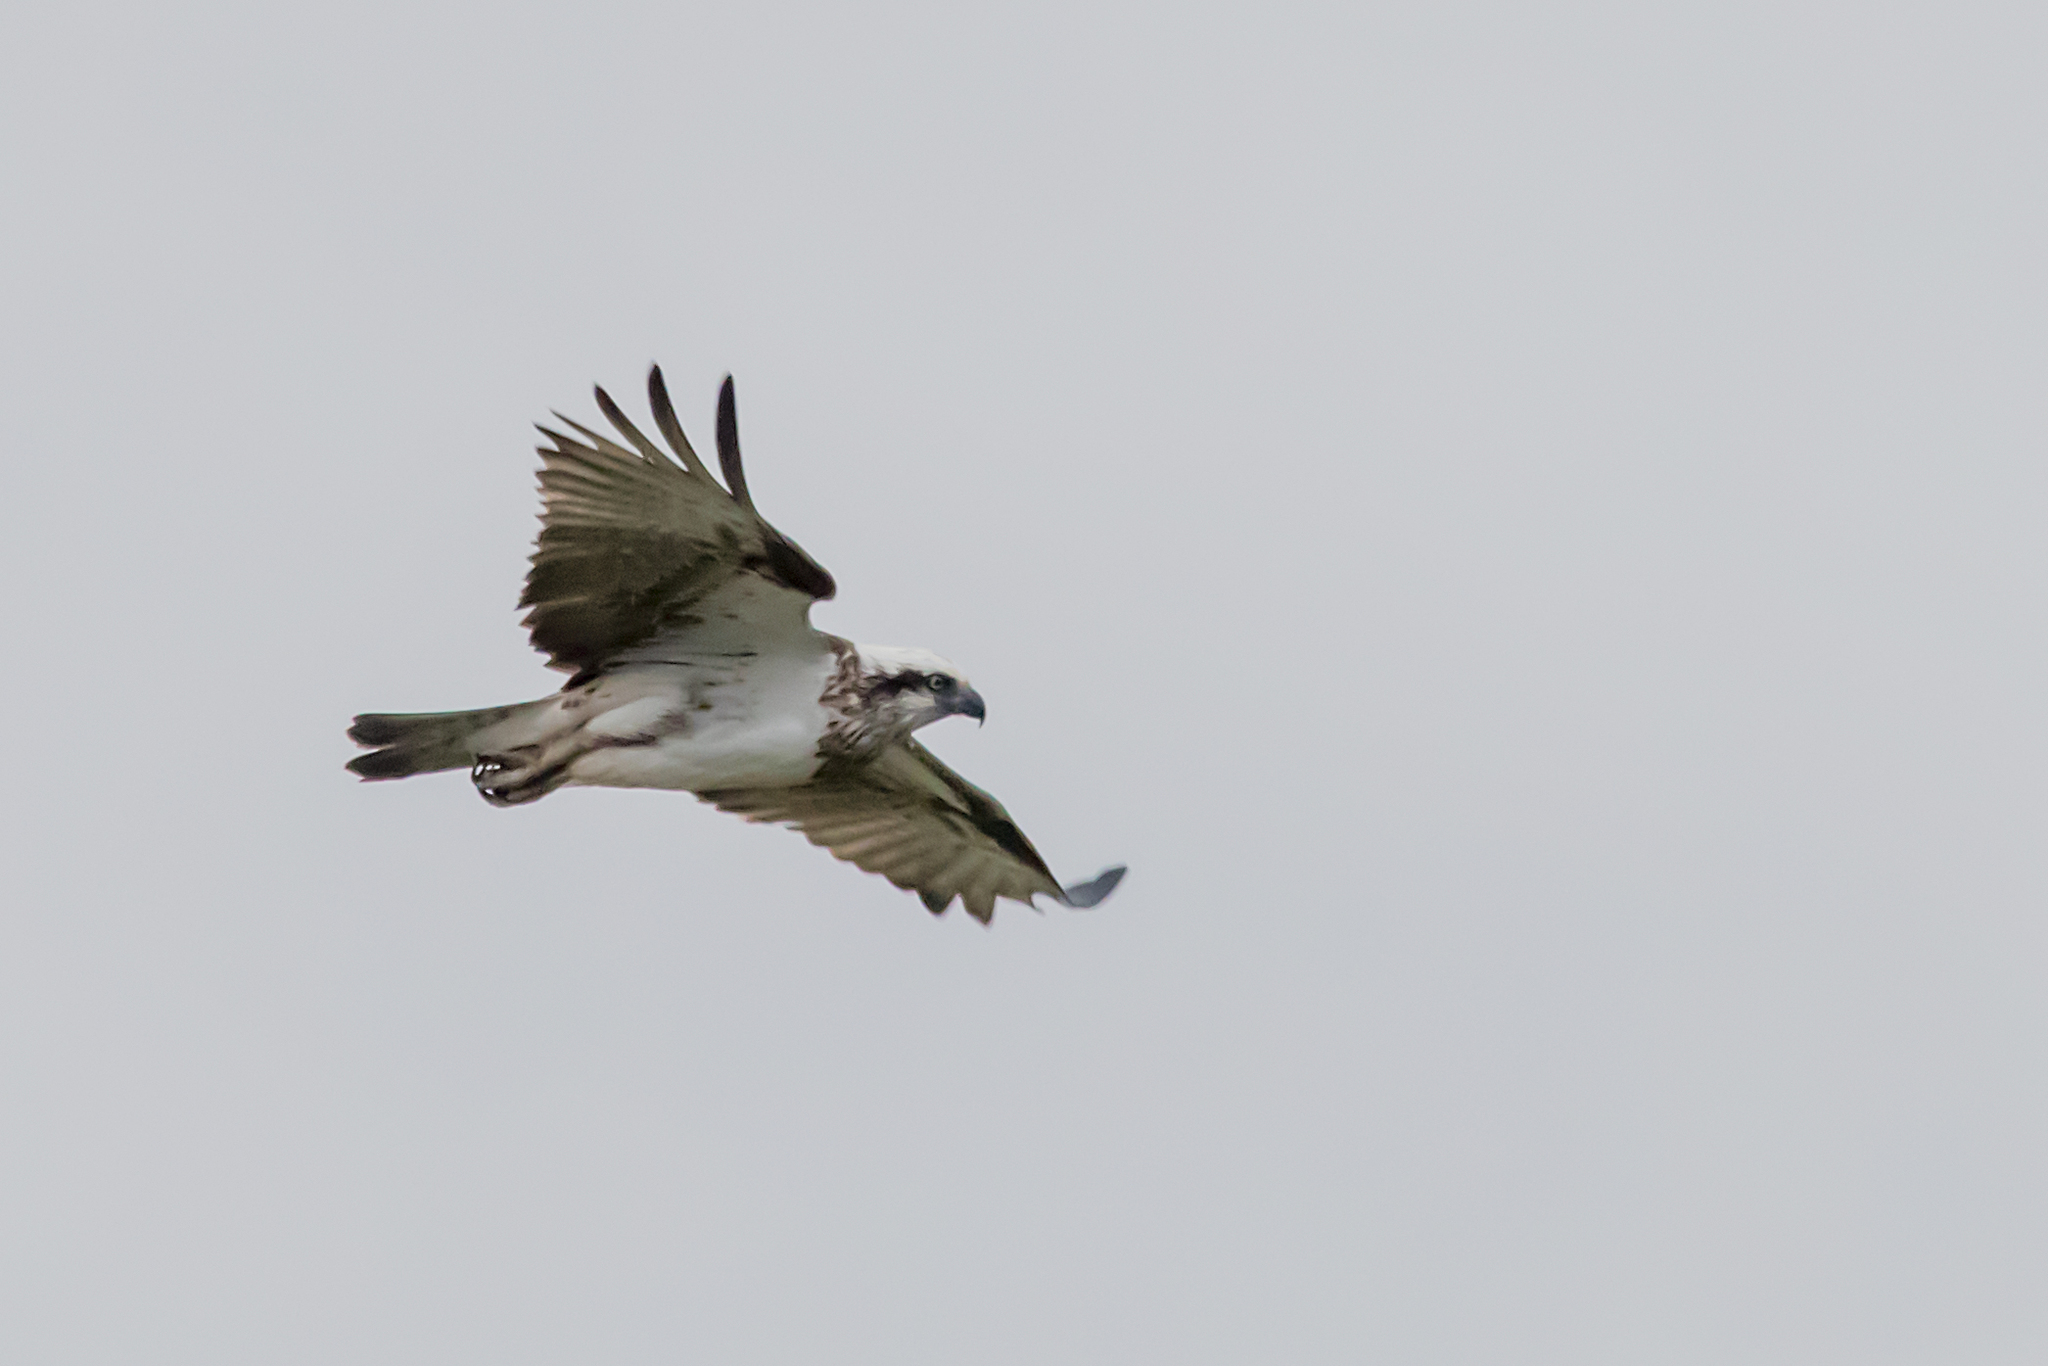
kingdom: Animalia
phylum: Chordata
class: Aves
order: Accipitriformes
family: Pandionidae
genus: Pandion
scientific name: Pandion cristatus
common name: Eastern osprey
